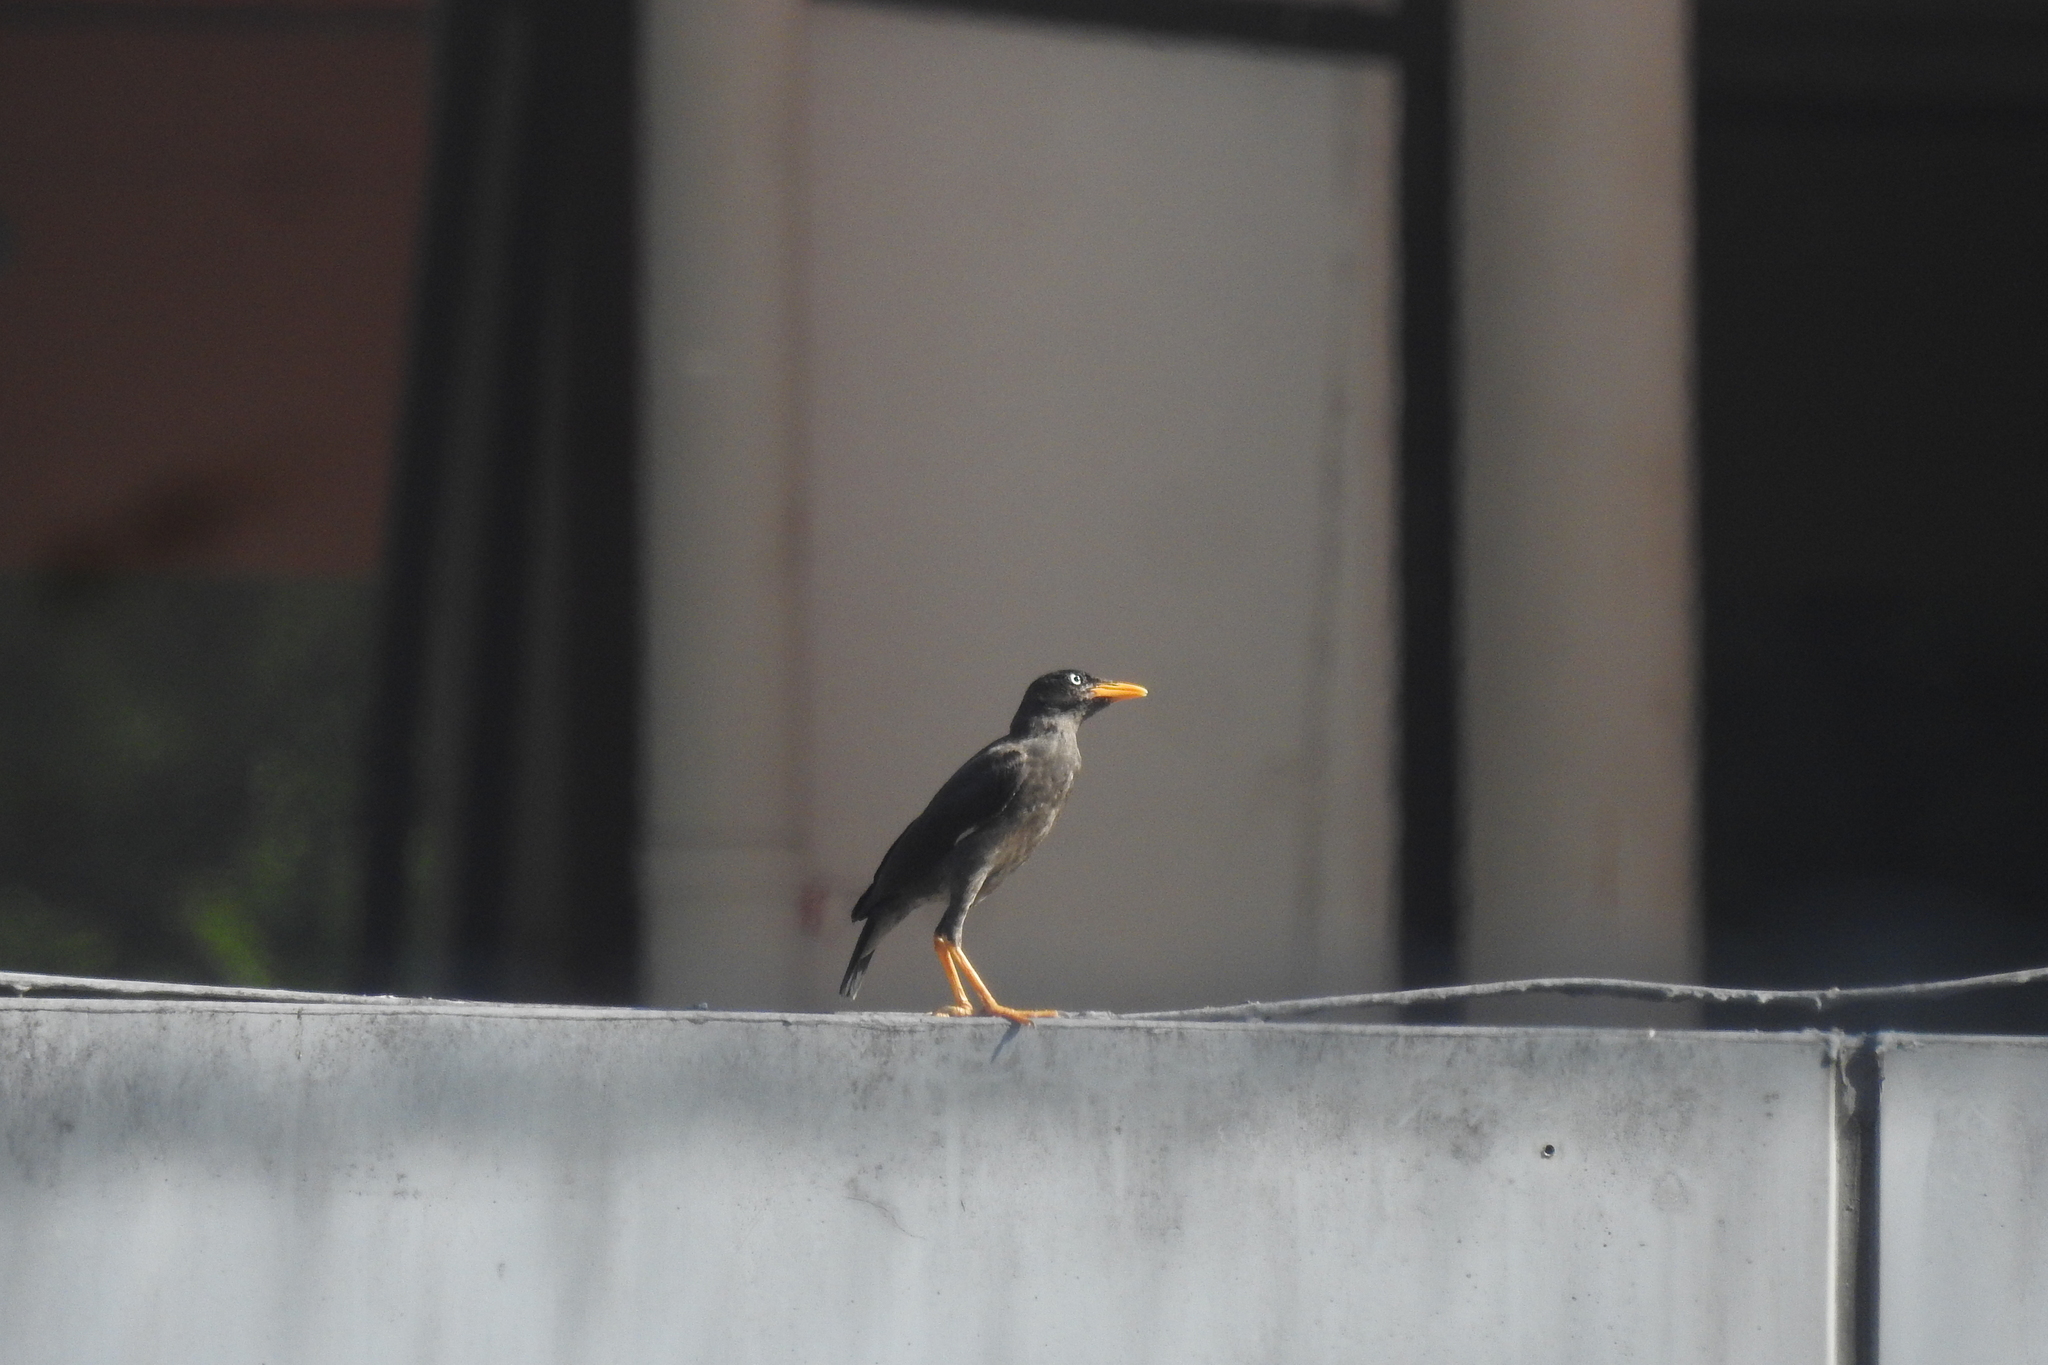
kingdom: Animalia
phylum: Chordata
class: Aves
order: Passeriformes
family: Sturnidae
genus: Acridotheres
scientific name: Acridotheres javanicus
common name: Javan myna
